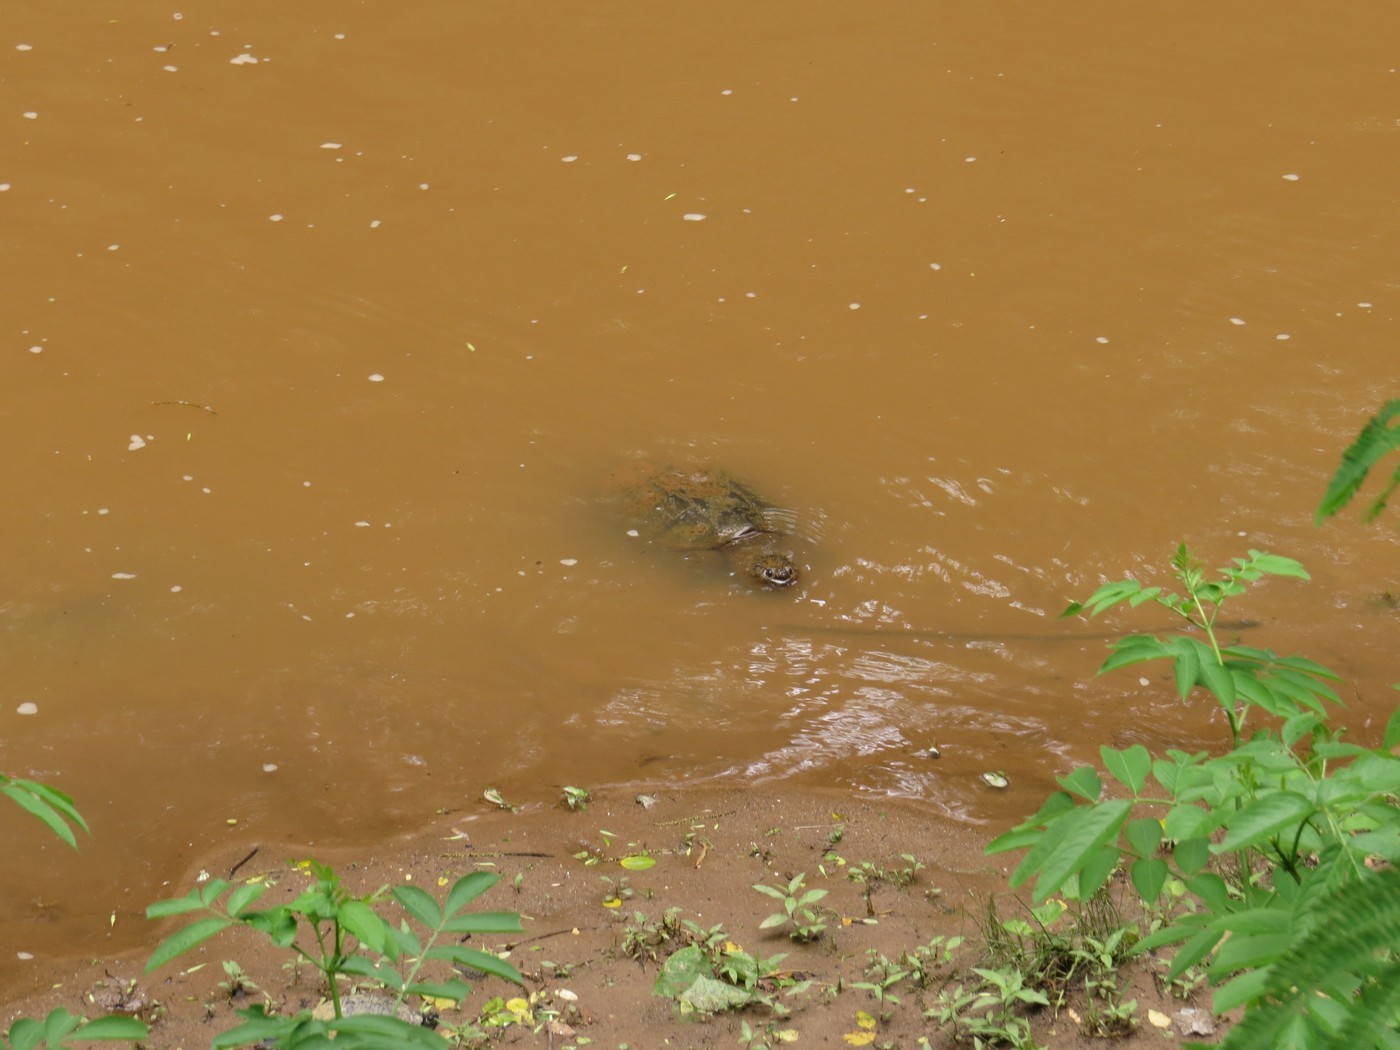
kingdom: Animalia
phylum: Chordata
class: Testudines
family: Chelydridae
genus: Chelydra
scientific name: Chelydra serpentina
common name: Common snapping turtle
